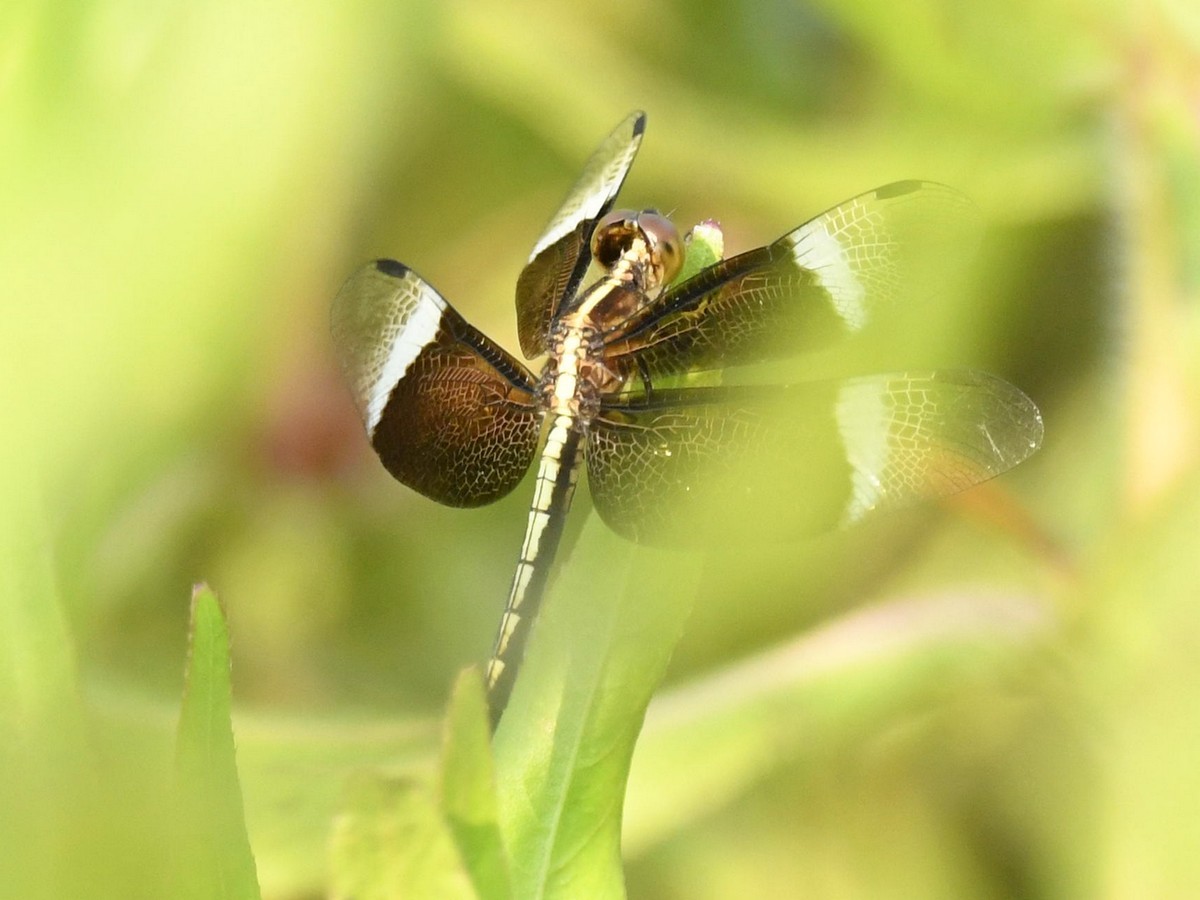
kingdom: Animalia
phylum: Arthropoda
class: Insecta
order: Odonata
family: Libellulidae
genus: Neurothemis
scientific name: Neurothemis tullia
